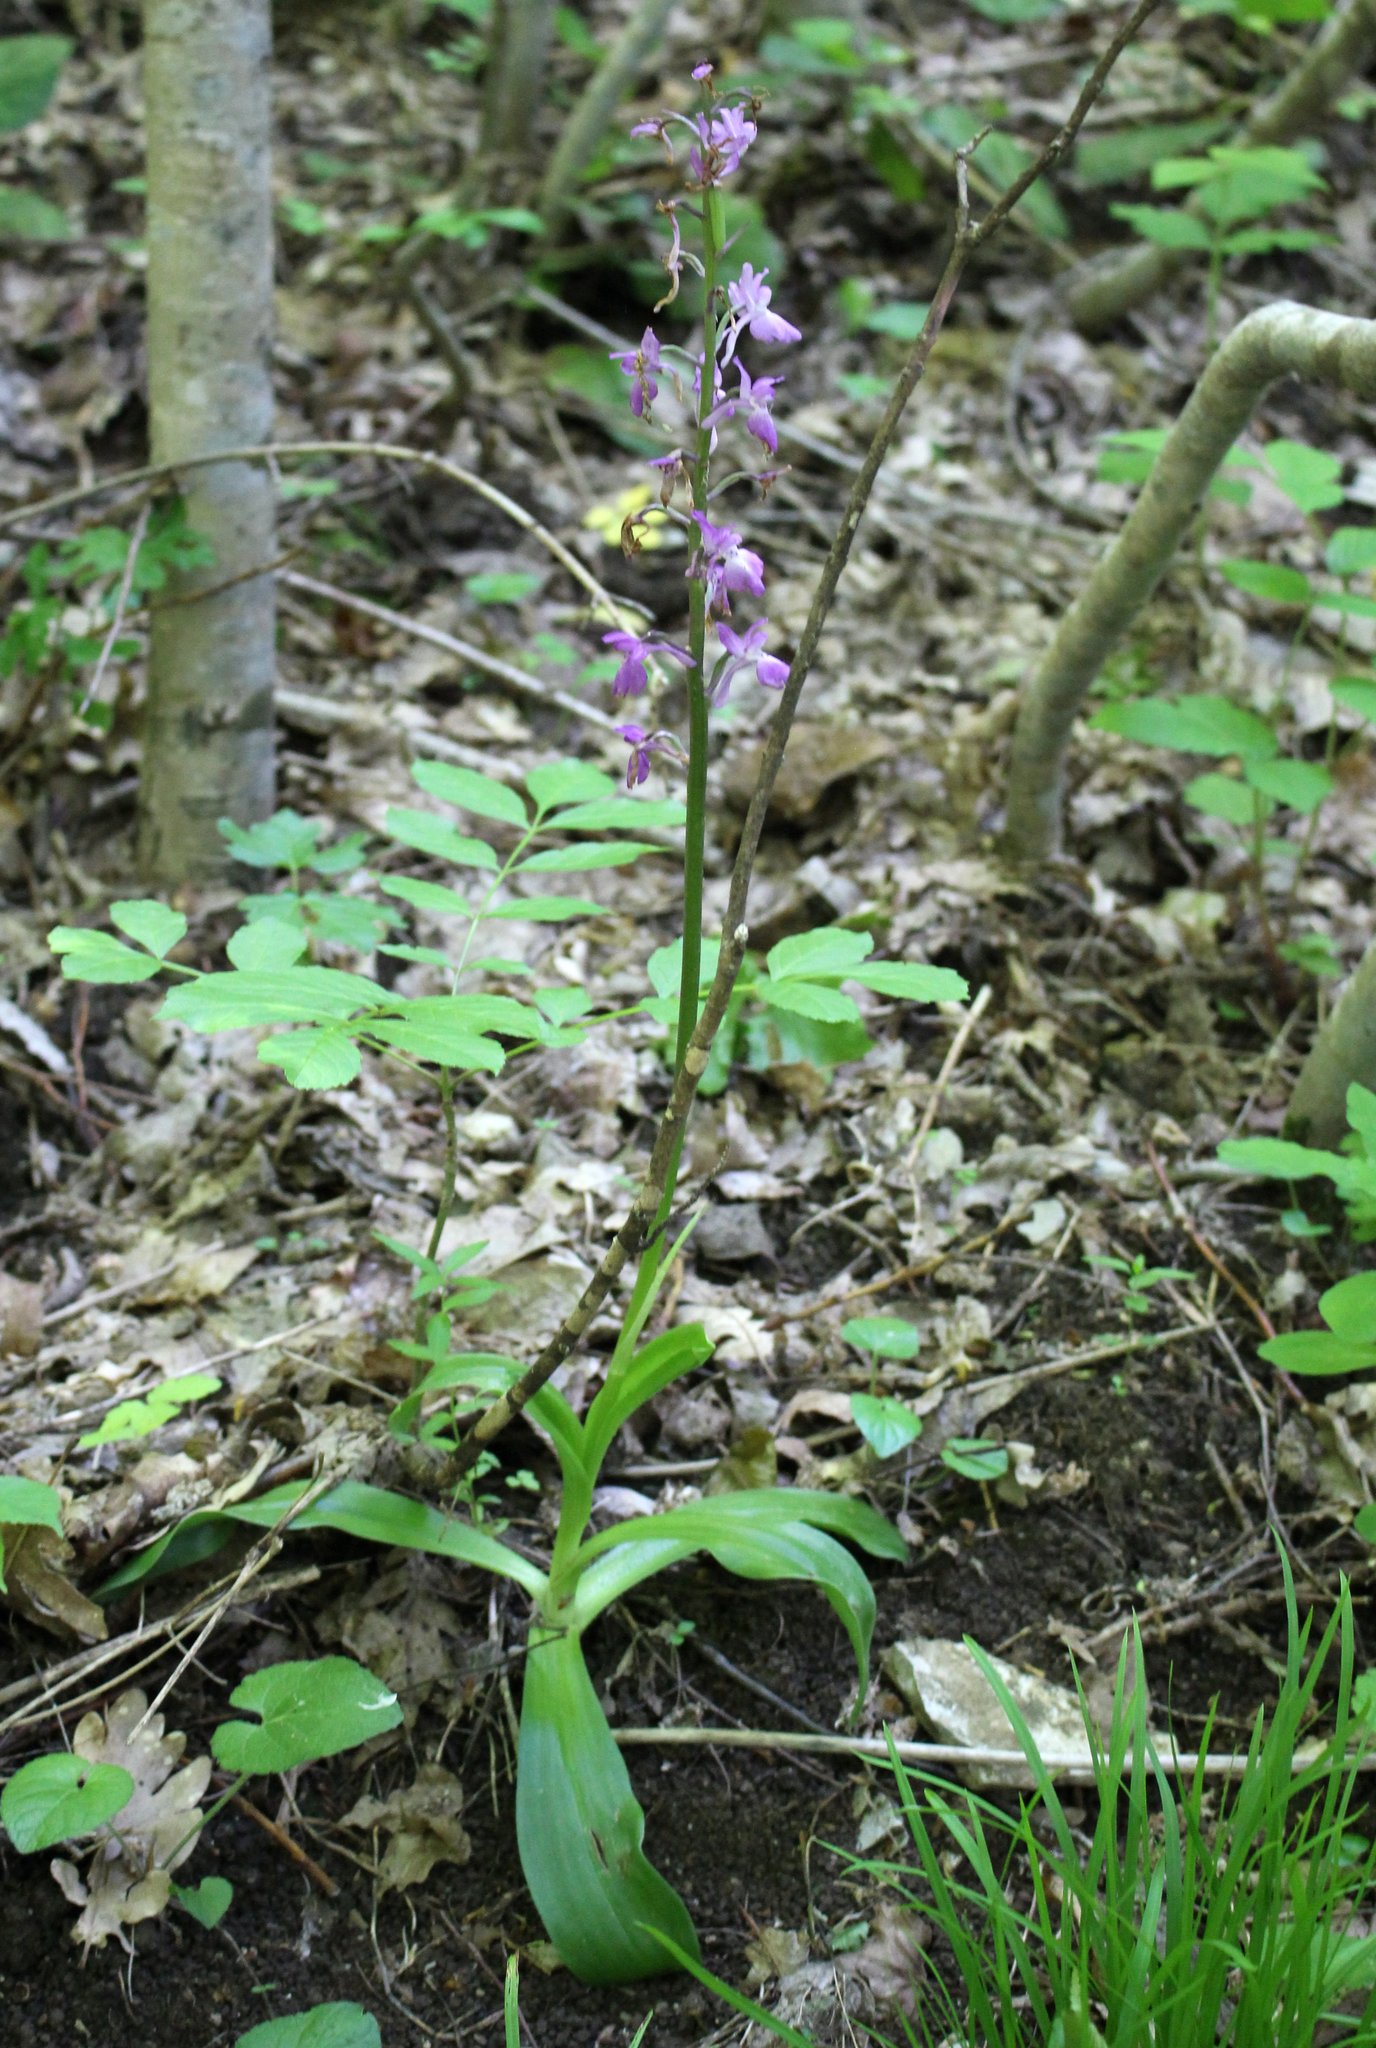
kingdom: Plantae
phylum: Tracheophyta
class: Liliopsida
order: Asparagales
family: Orchidaceae
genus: Orchis
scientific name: Orchis mascula
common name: Early-purple orchid
